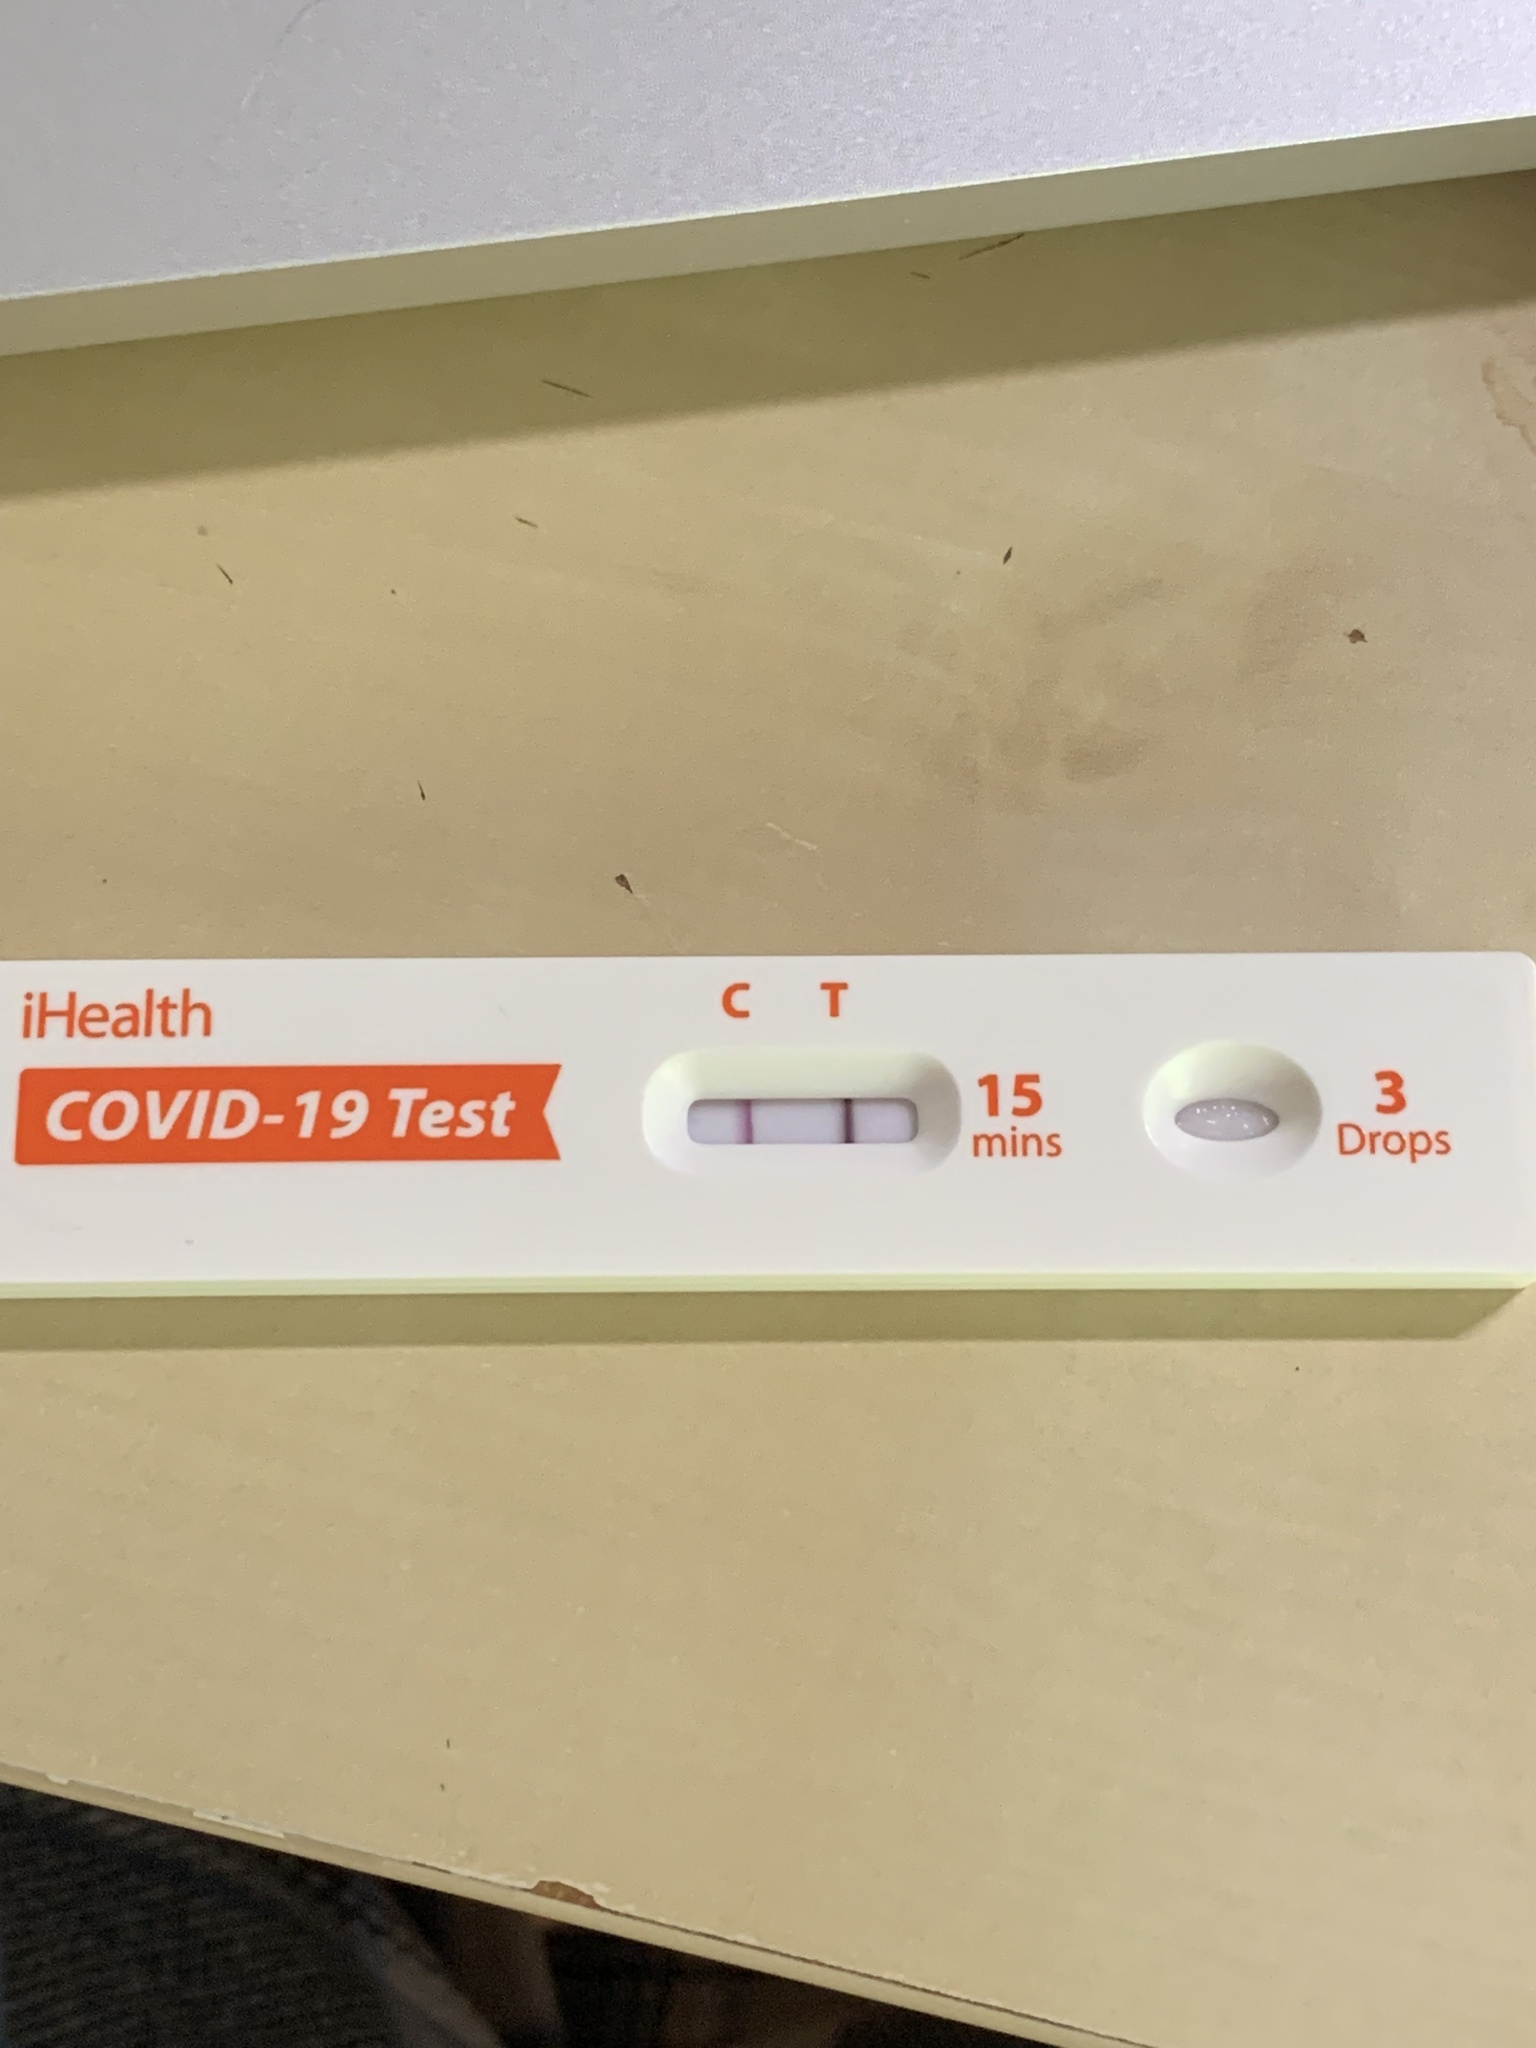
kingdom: Viruses
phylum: Pisuviricota
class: Pisoniviricetes
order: Nidovirales
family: Coronaviridae
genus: Betacoronavirus
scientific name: Betacoronavirus
